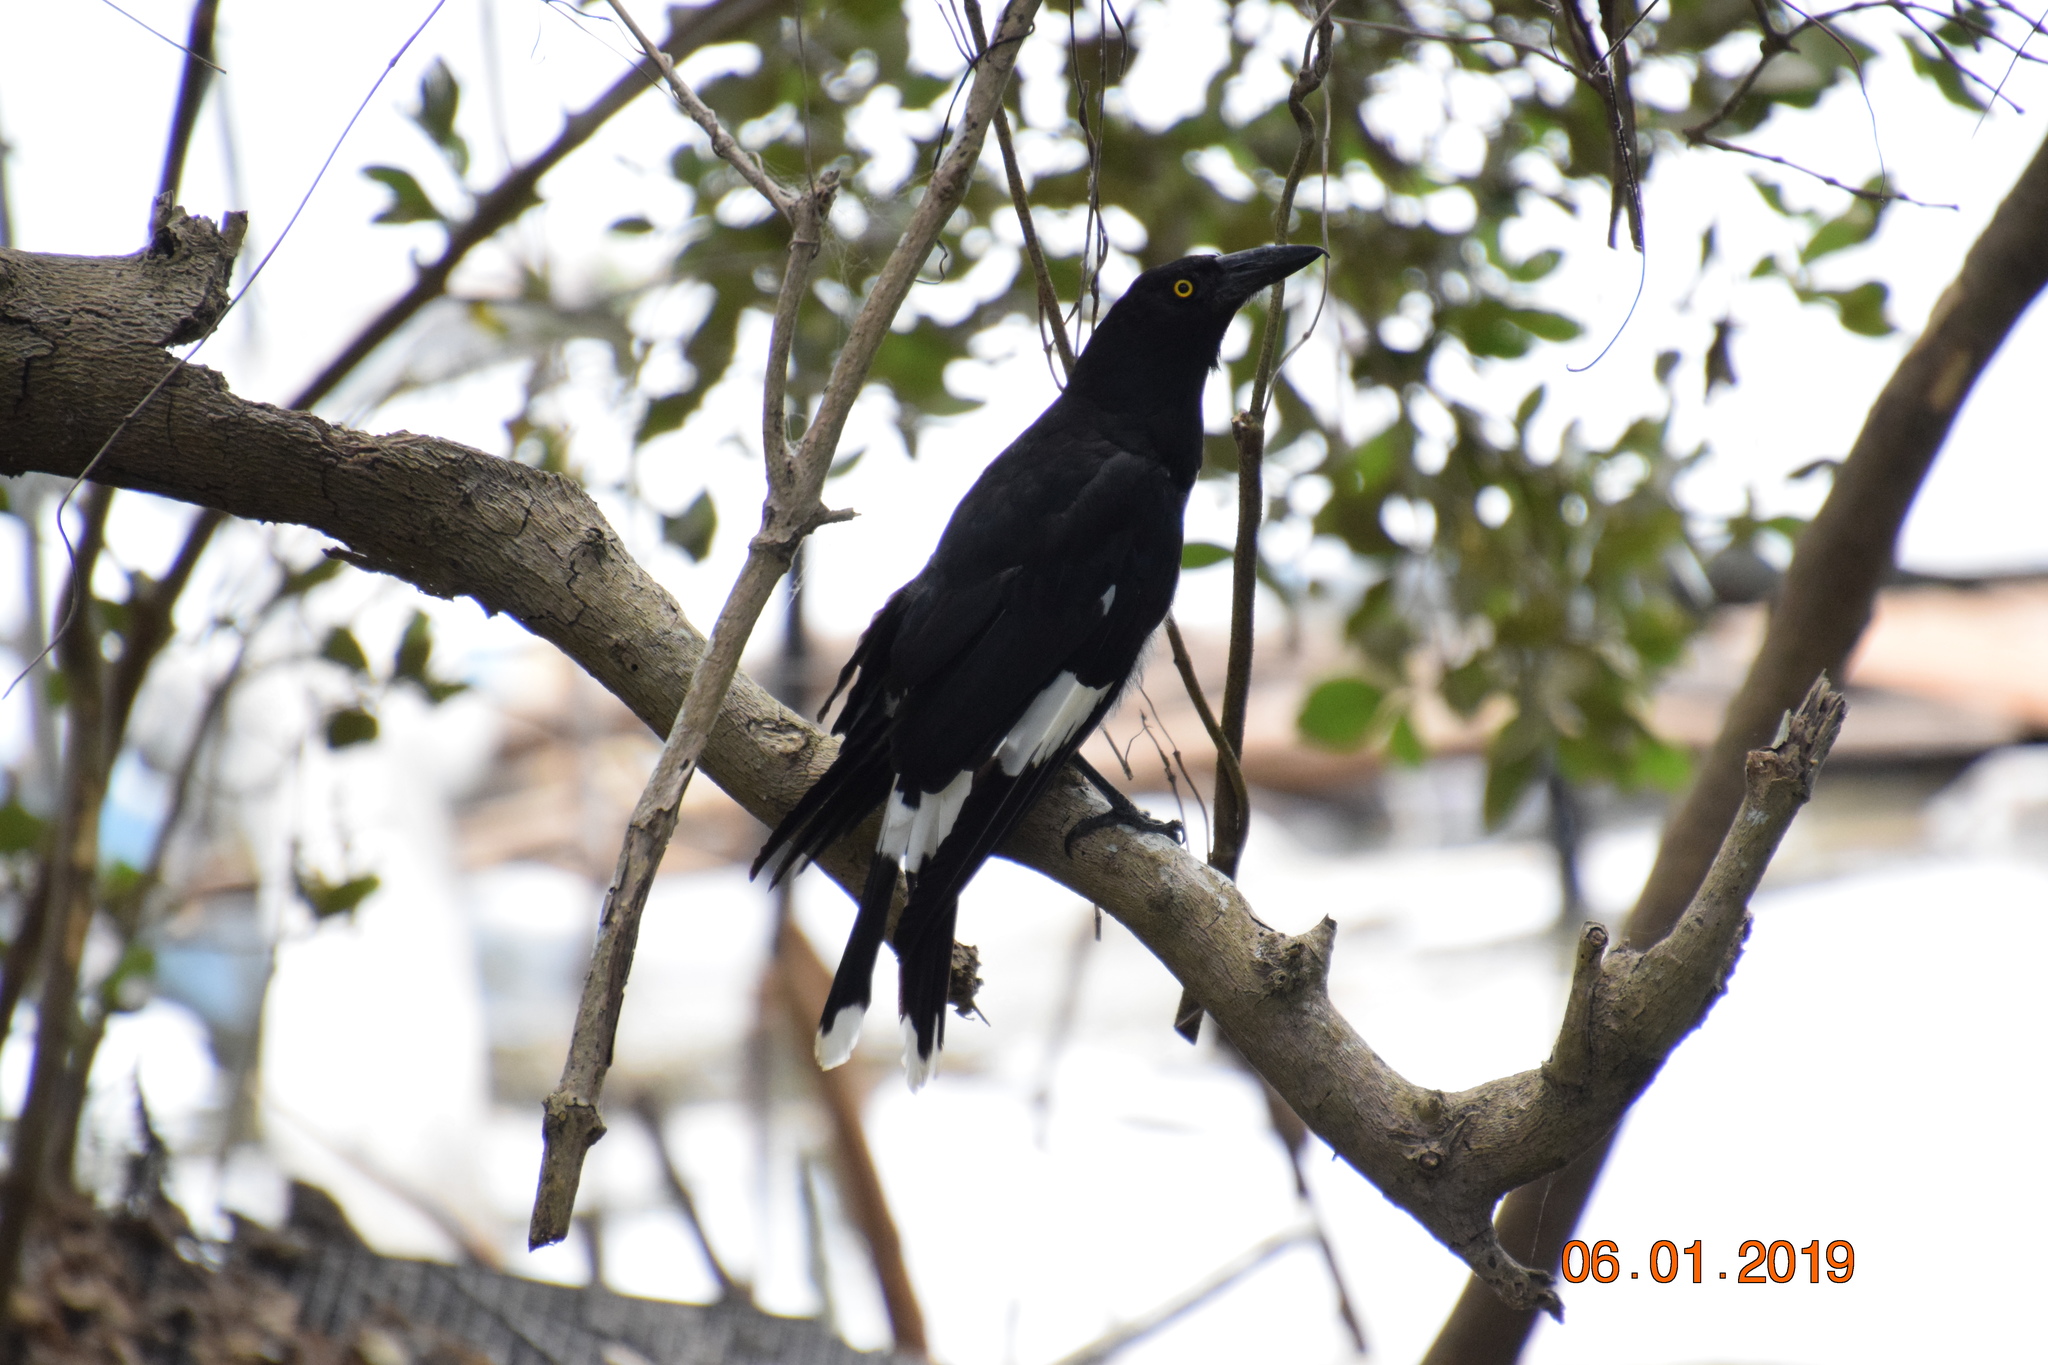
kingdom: Animalia
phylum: Chordata
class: Aves
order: Passeriformes
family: Cracticidae
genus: Strepera
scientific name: Strepera graculina
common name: Pied currawong
